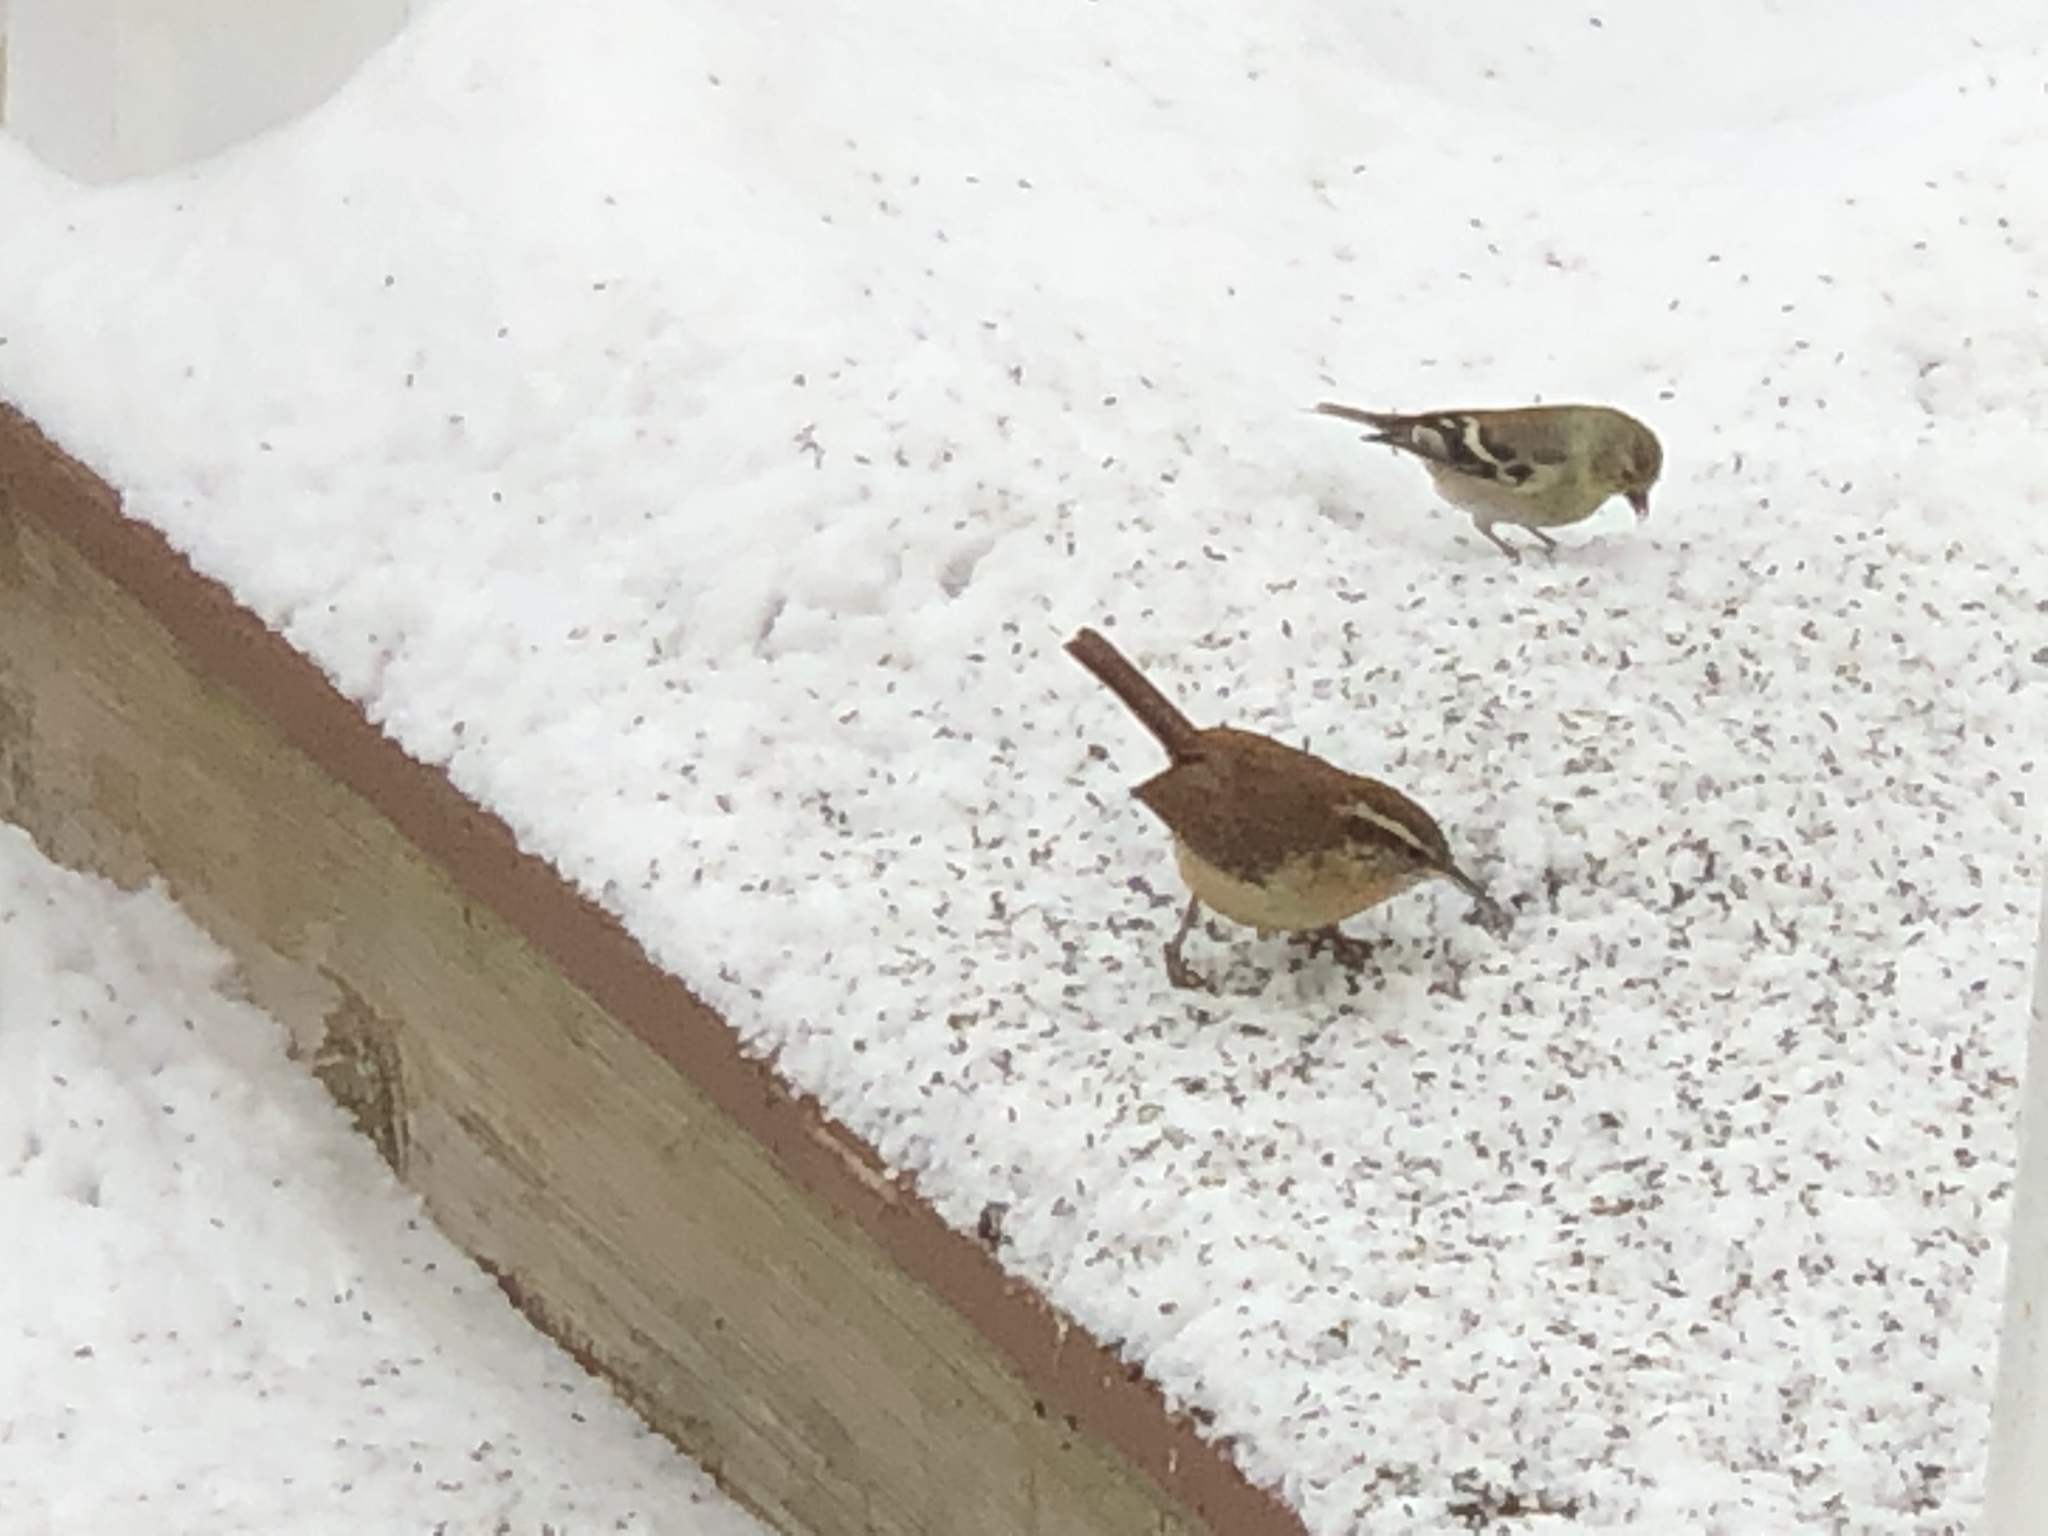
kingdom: Animalia
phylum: Chordata
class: Aves
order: Passeriformes
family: Troglodytidae
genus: Thryothorus
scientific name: Thryothorus ludovicianus
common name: Carolina wren
